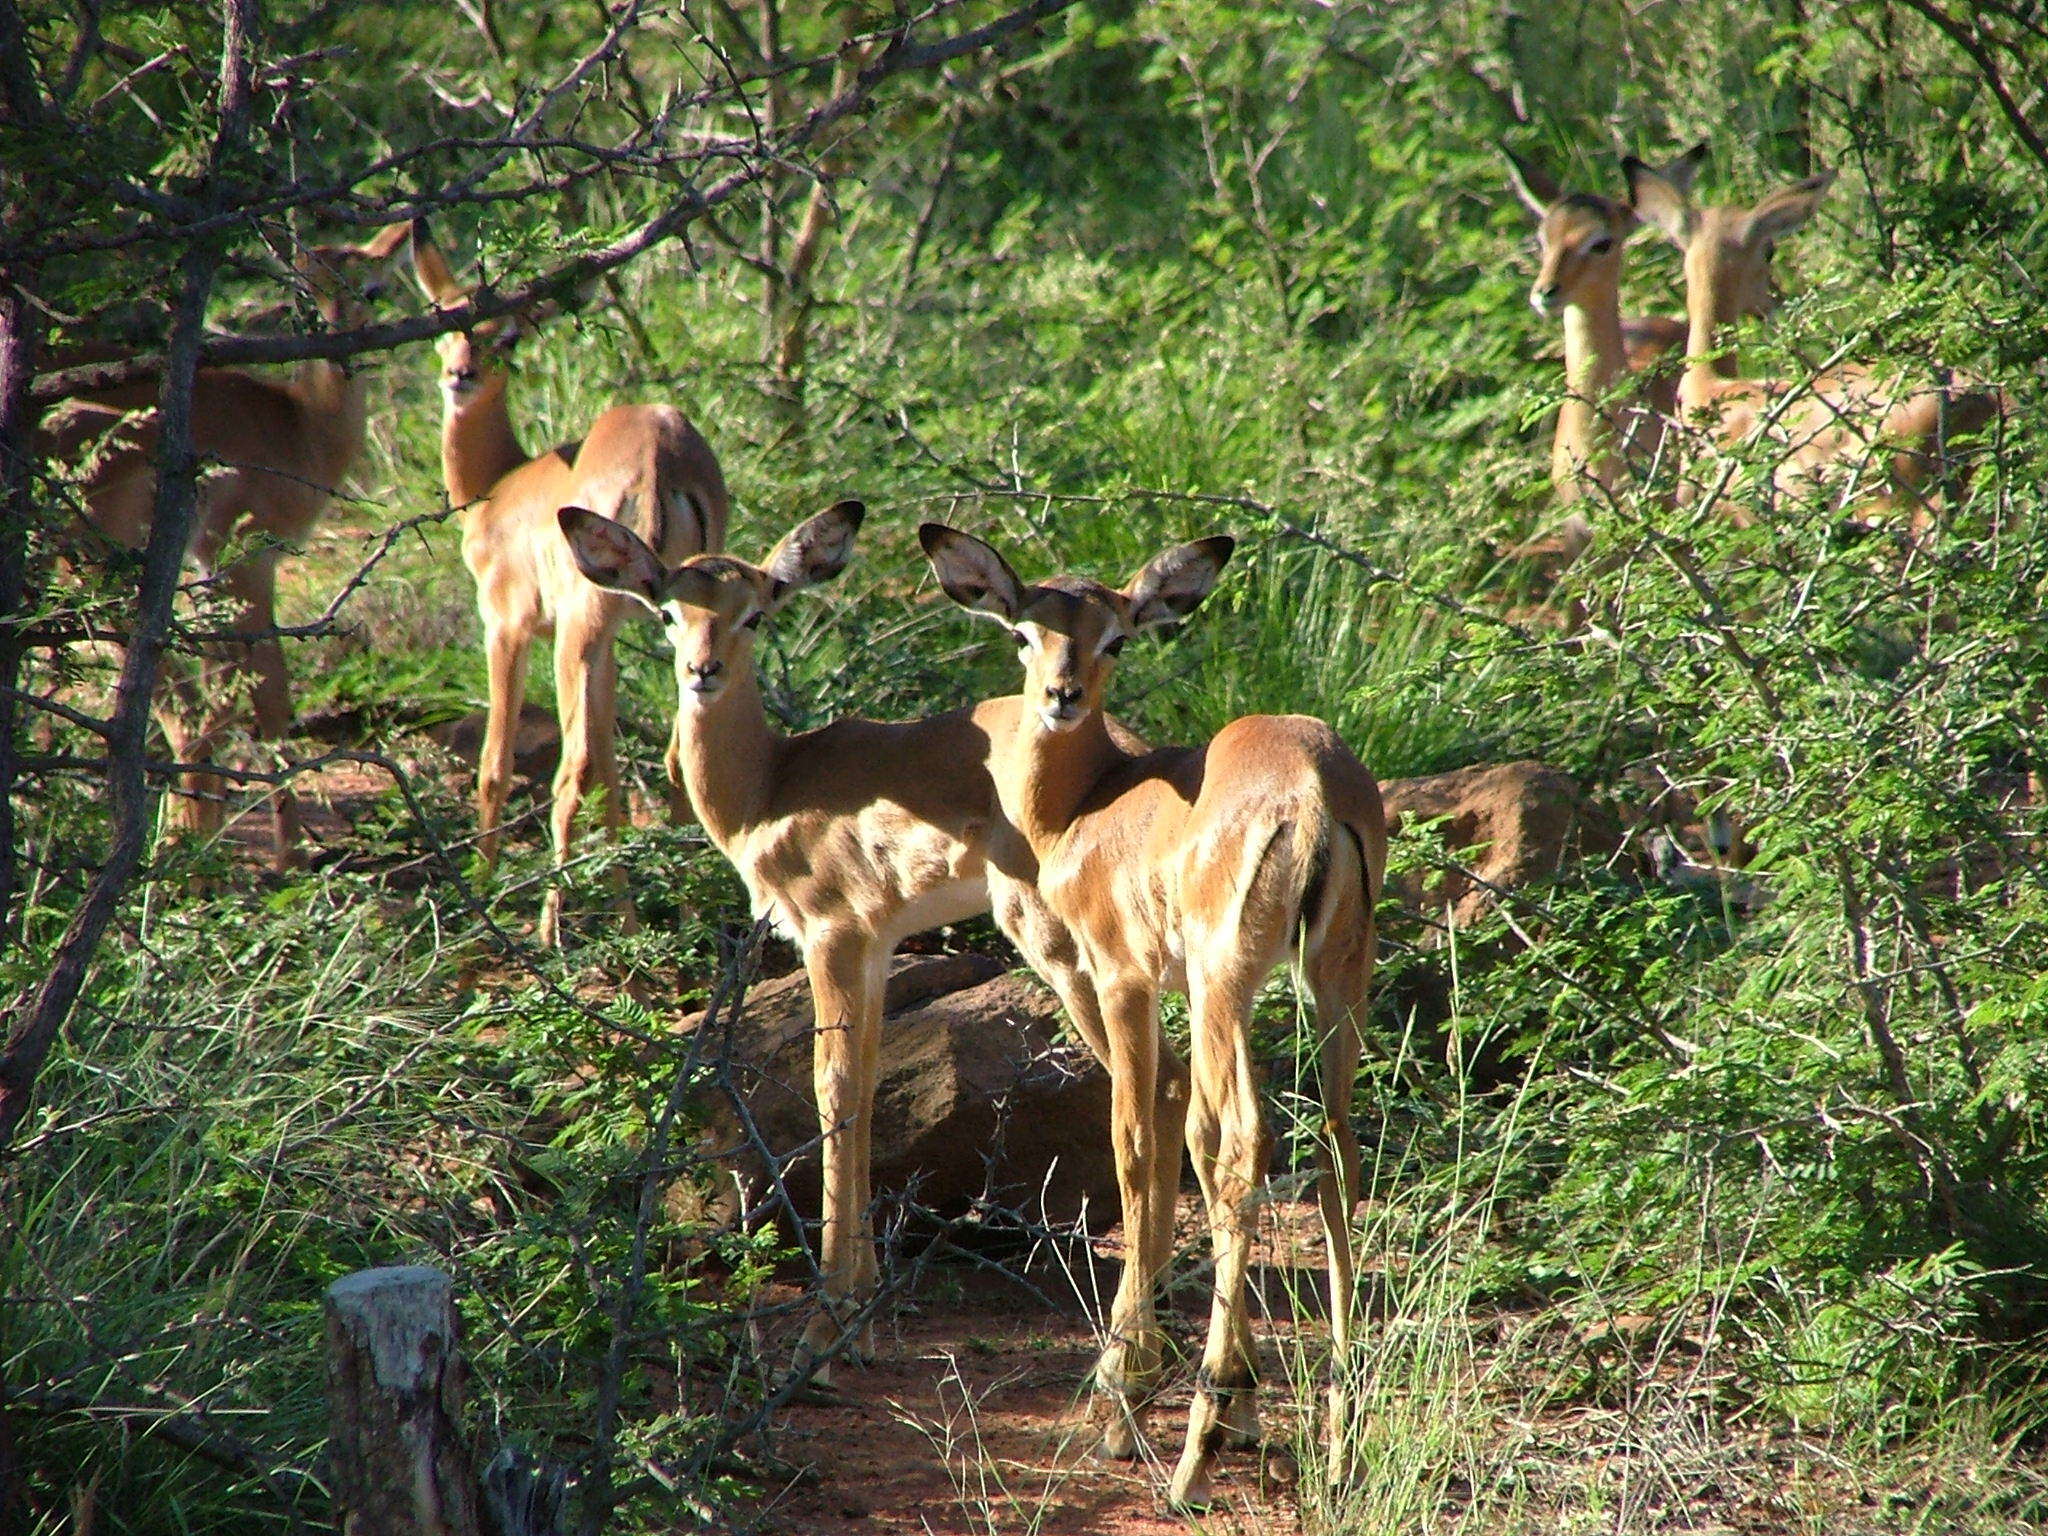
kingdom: Animalia
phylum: Chordata
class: Mammalia
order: Artiodactyla
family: Bovidae
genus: Aepyceros
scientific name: Aepyceros melampus
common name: Impala
